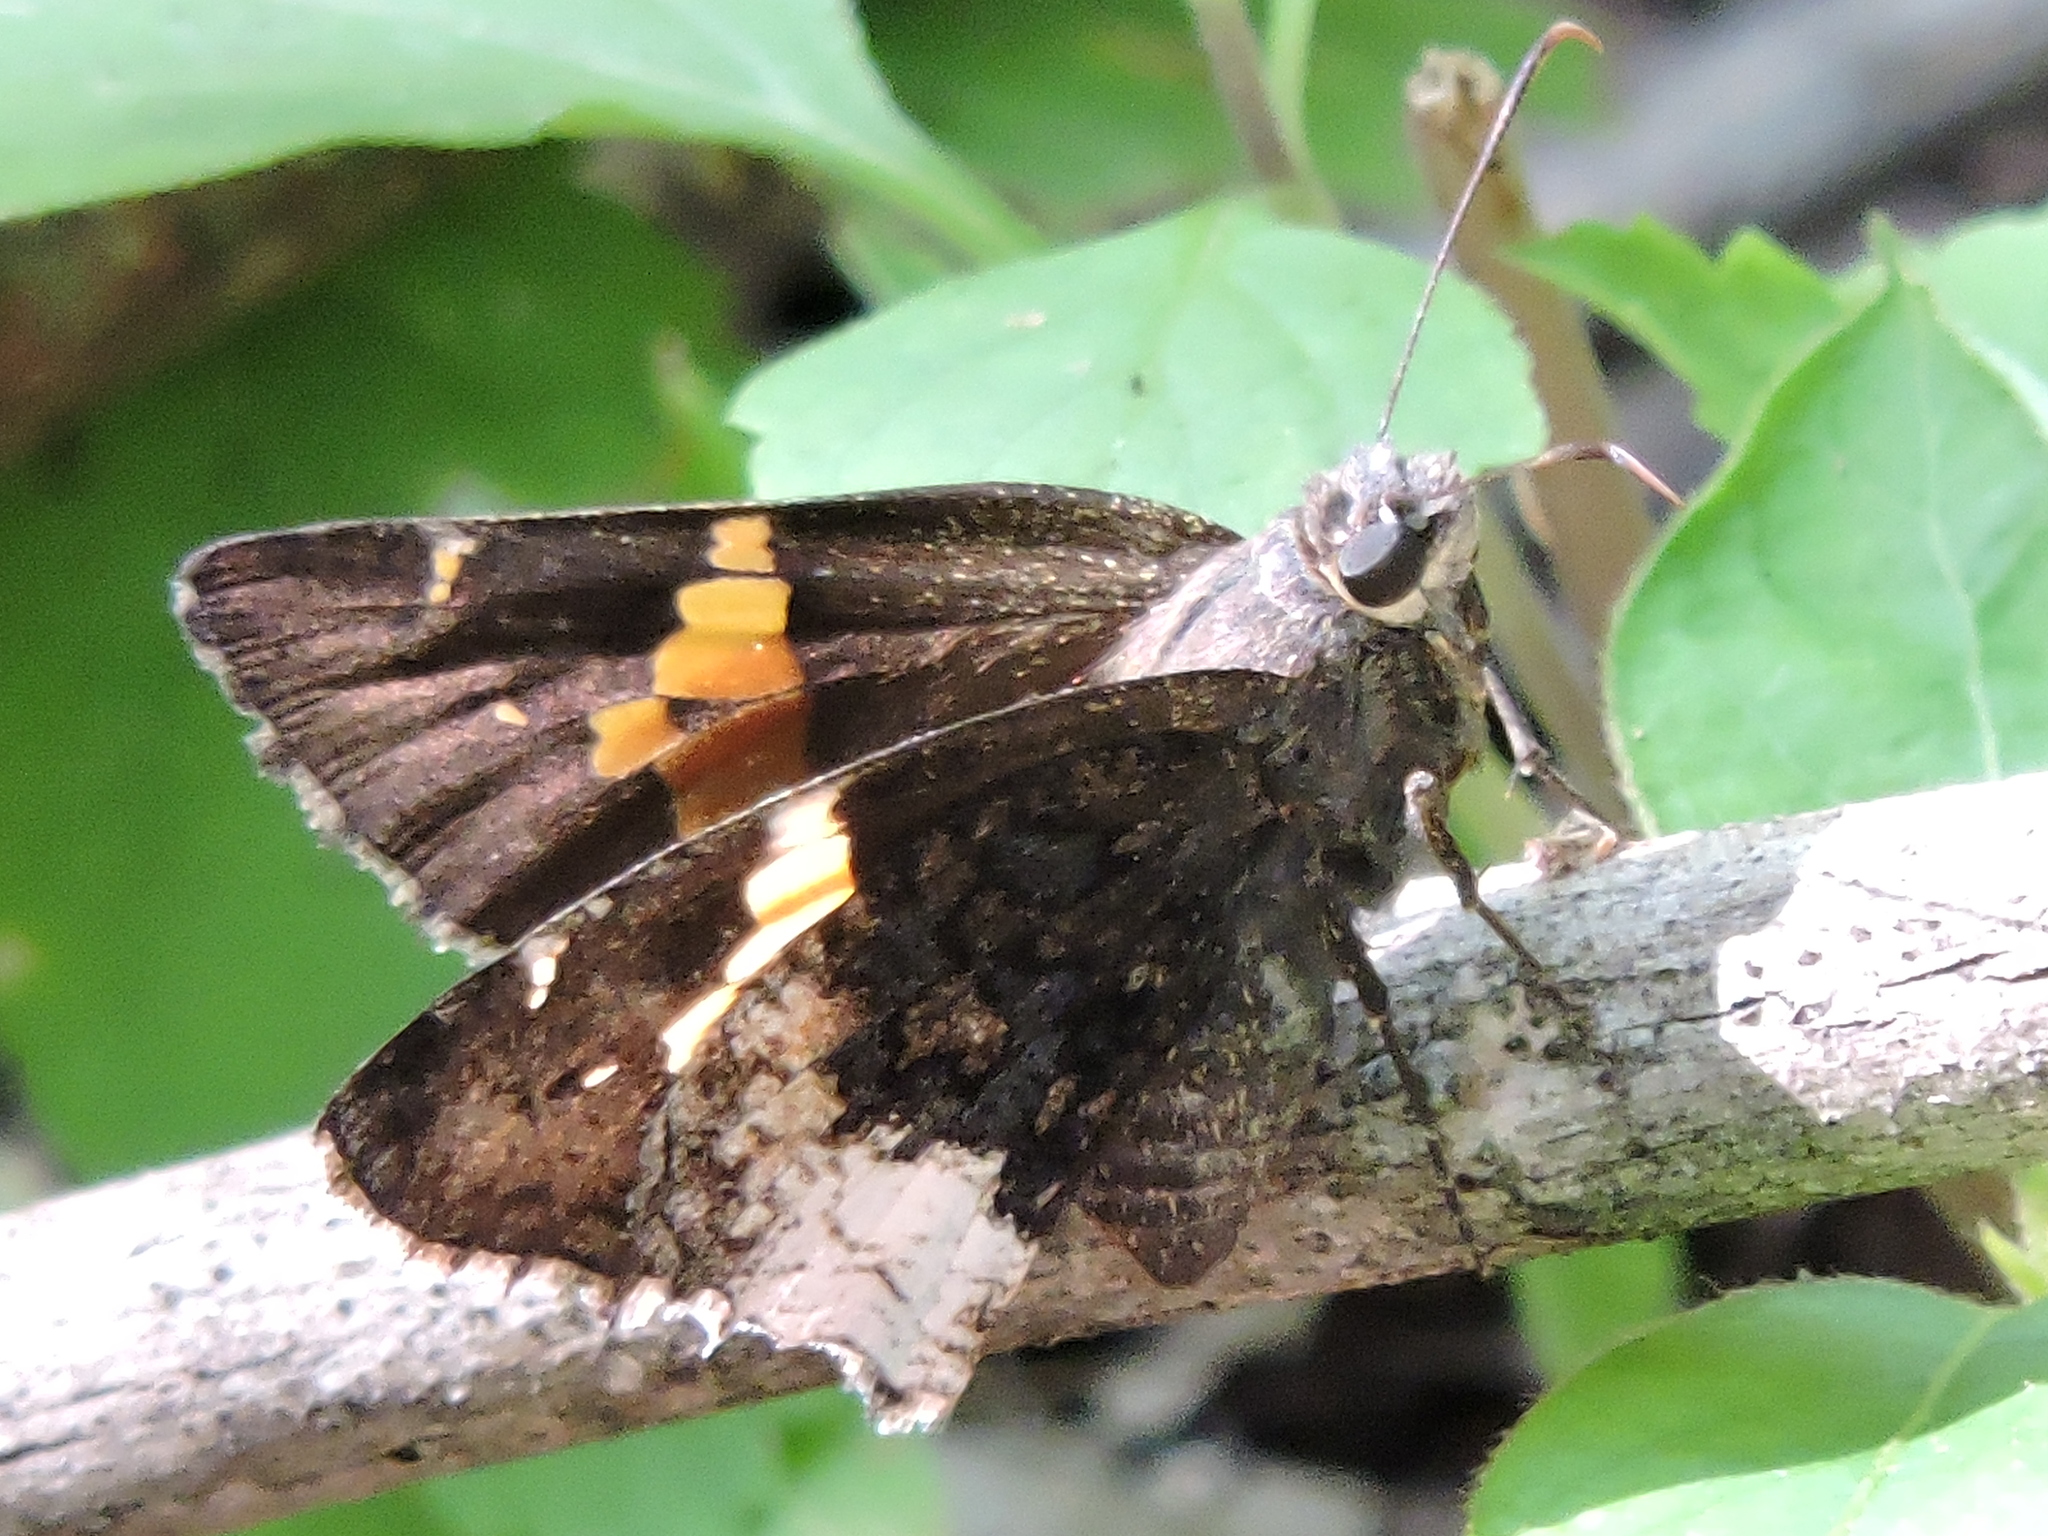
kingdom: Animalia
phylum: Arthropoda
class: Insecta
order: Lepidoptera
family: Hesperiidae
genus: Thorybes
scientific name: Thorybes lyciades
